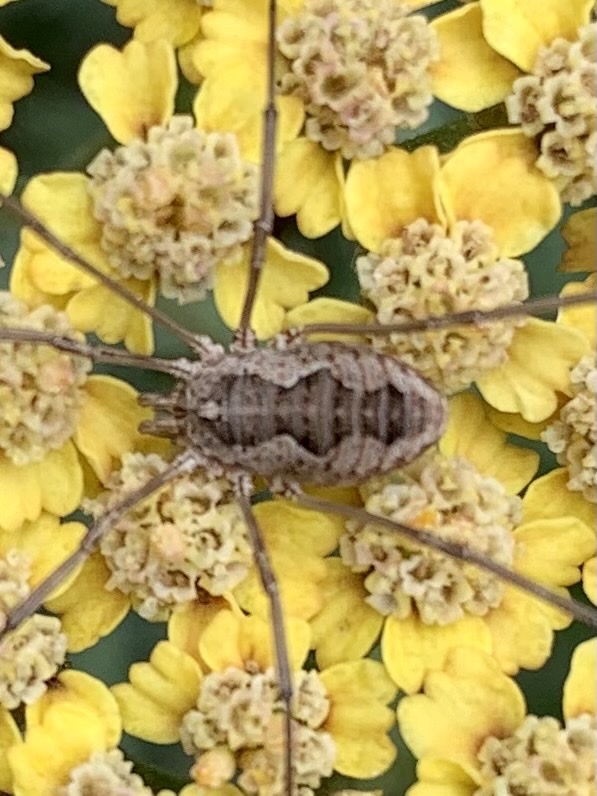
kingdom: Animalia
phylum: Arthropoda
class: Arachnida
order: Opiliones
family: Phalangiidae
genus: Phalangium
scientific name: Phalangium opilio
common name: Daddy longleg
